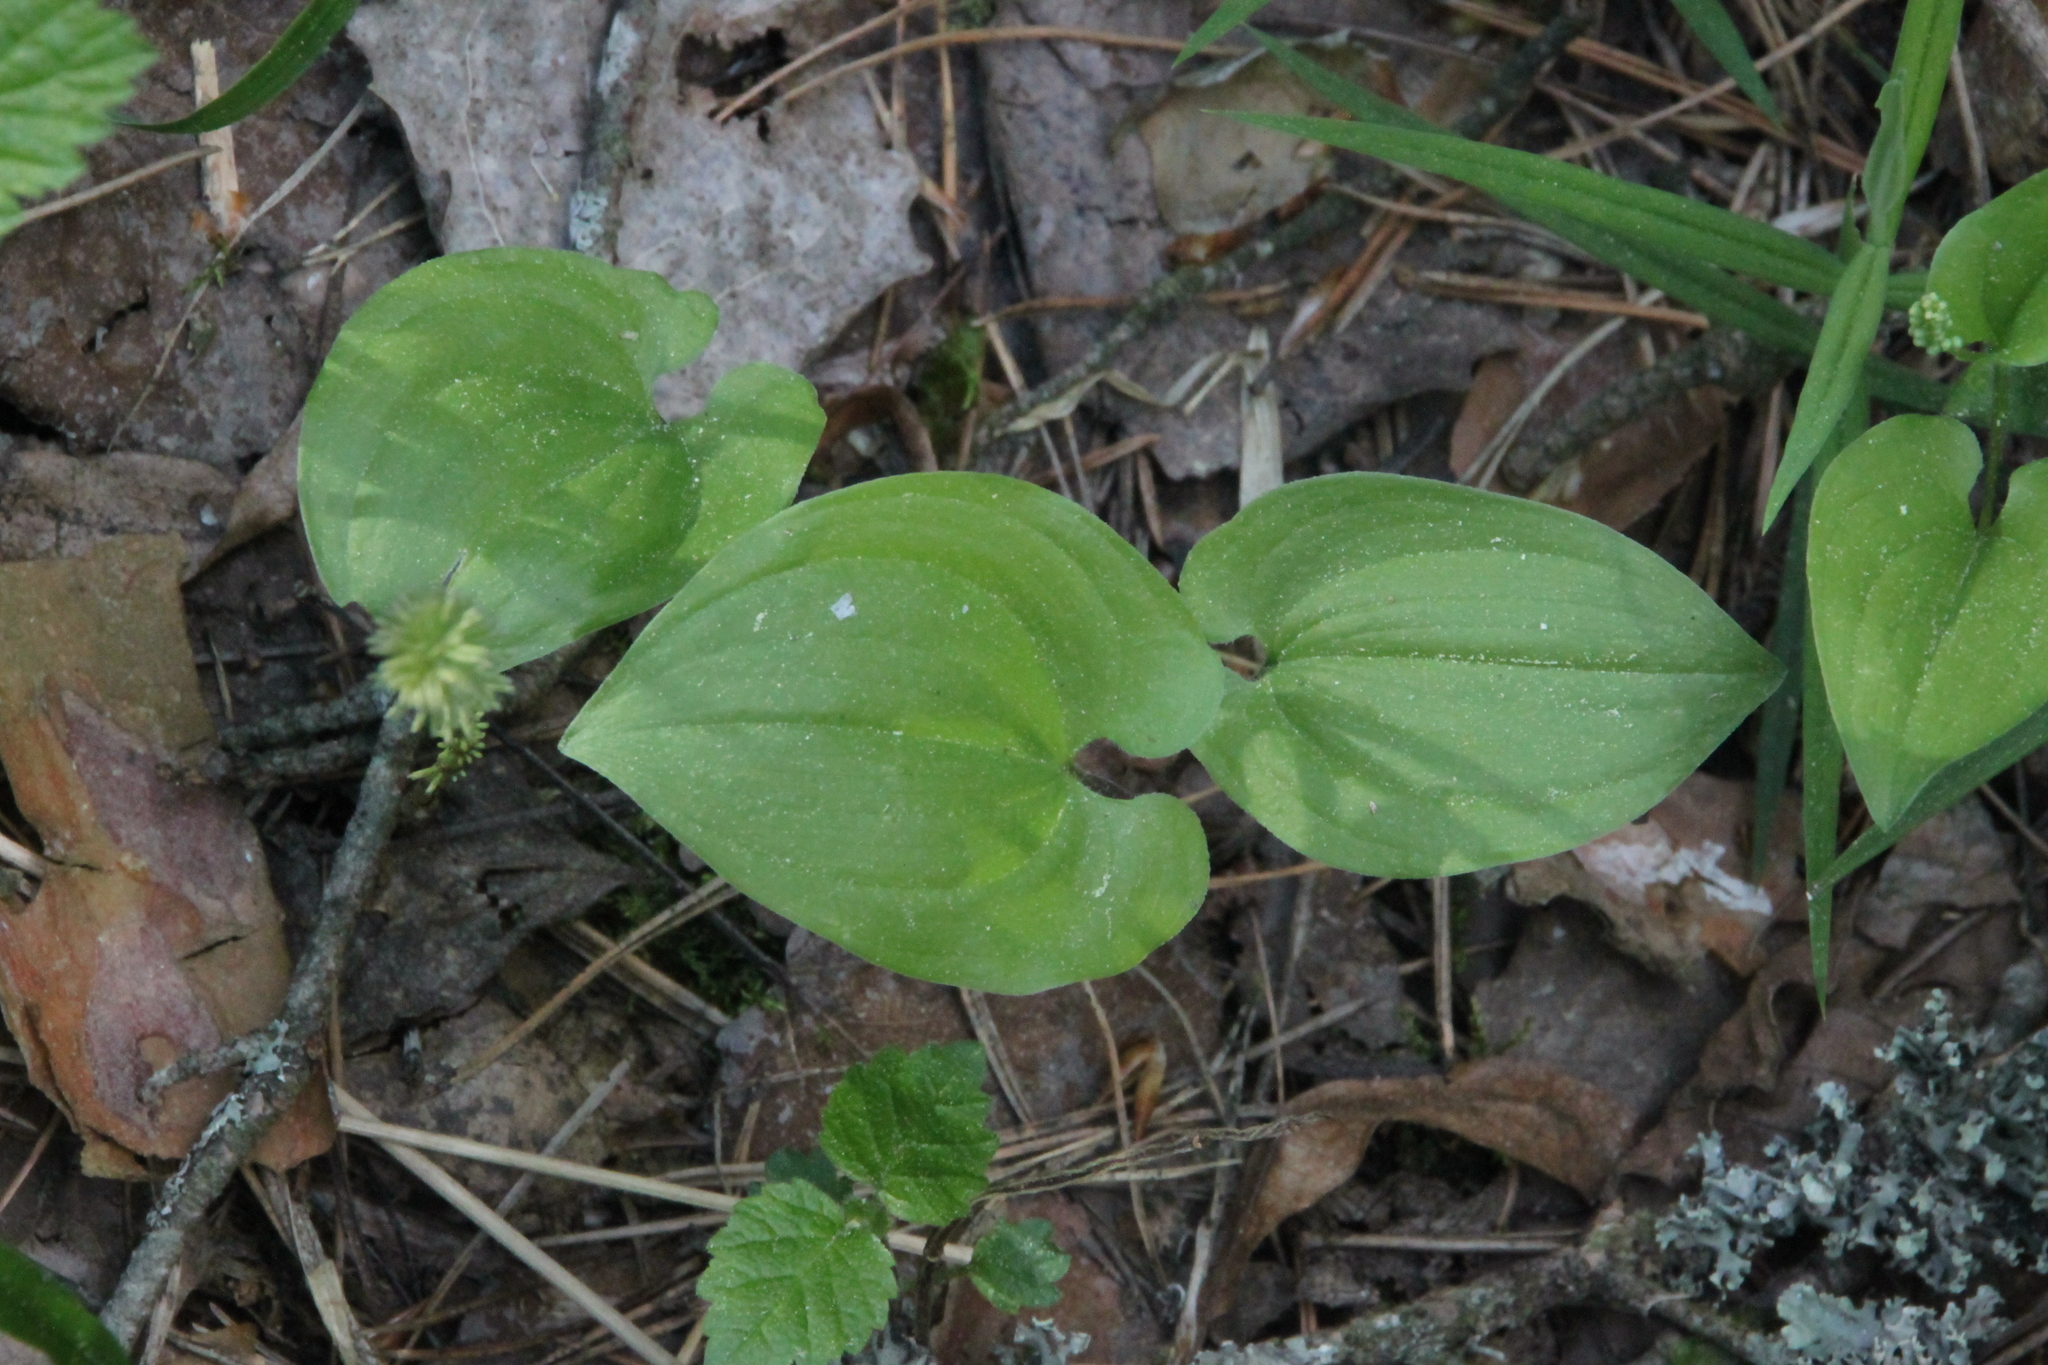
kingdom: Plantae
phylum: Tracheophyta
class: Liliopsida
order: Asparagales
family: Asparagaceae
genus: Maianthemum
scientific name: Maianthemum bifolium
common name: May lily
